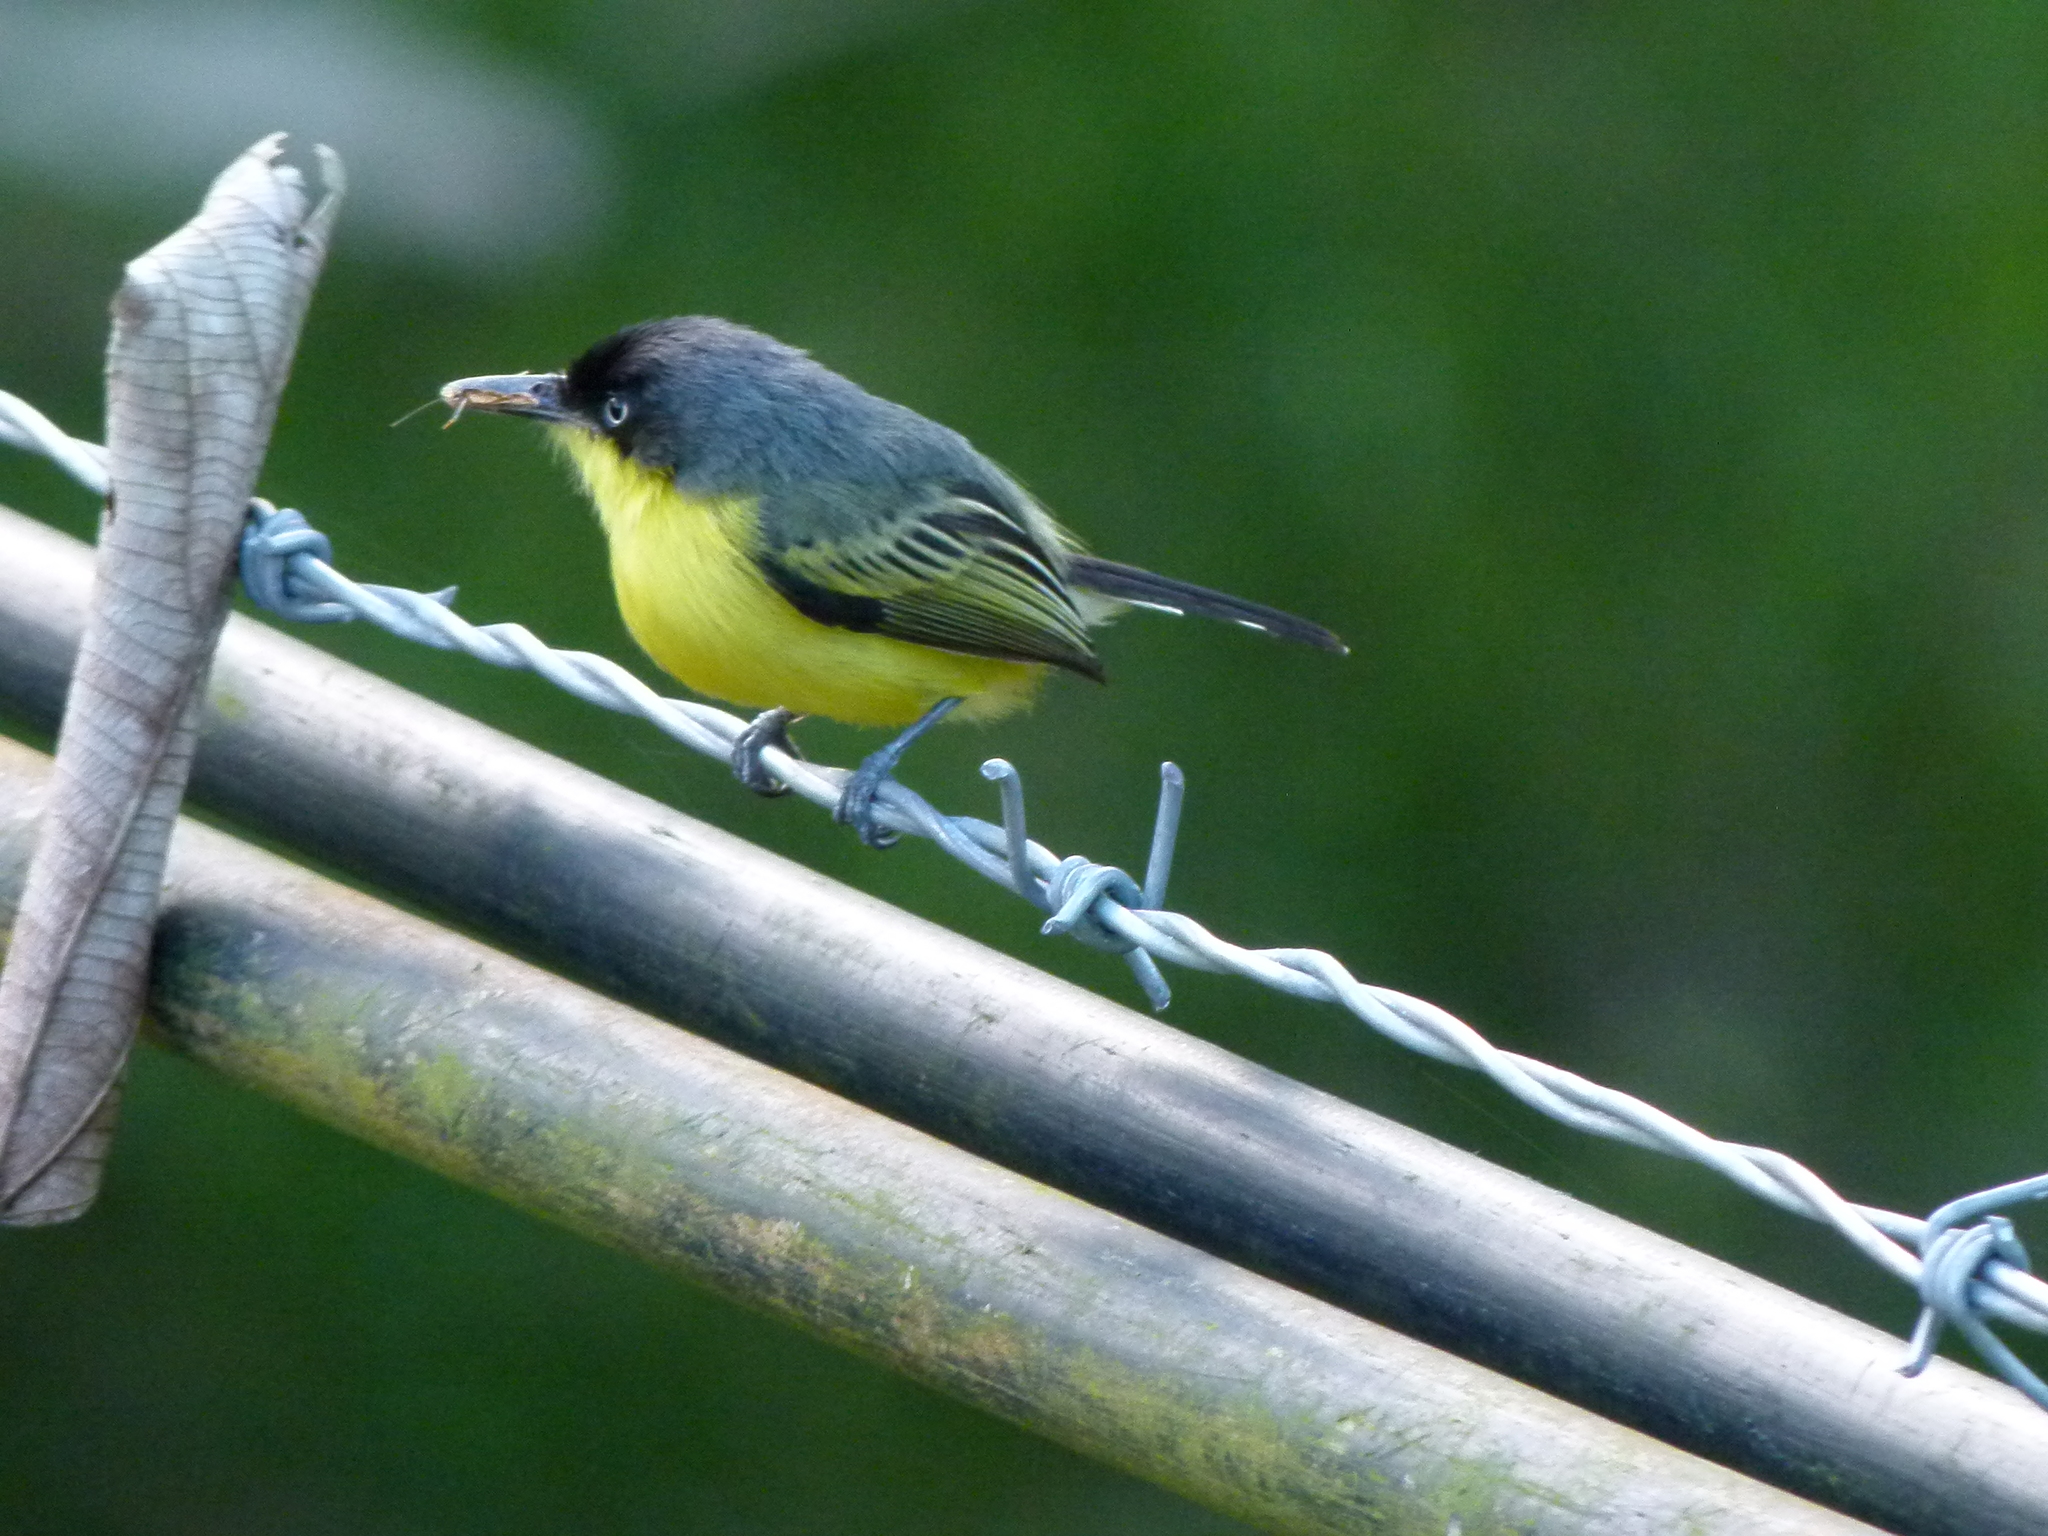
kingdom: Animalia
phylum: Chordata
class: Aves
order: Passeriformes
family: Tyrannidae
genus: Todirostrum
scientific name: Todirostrum cinereum
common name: Common tody-flycatcher
